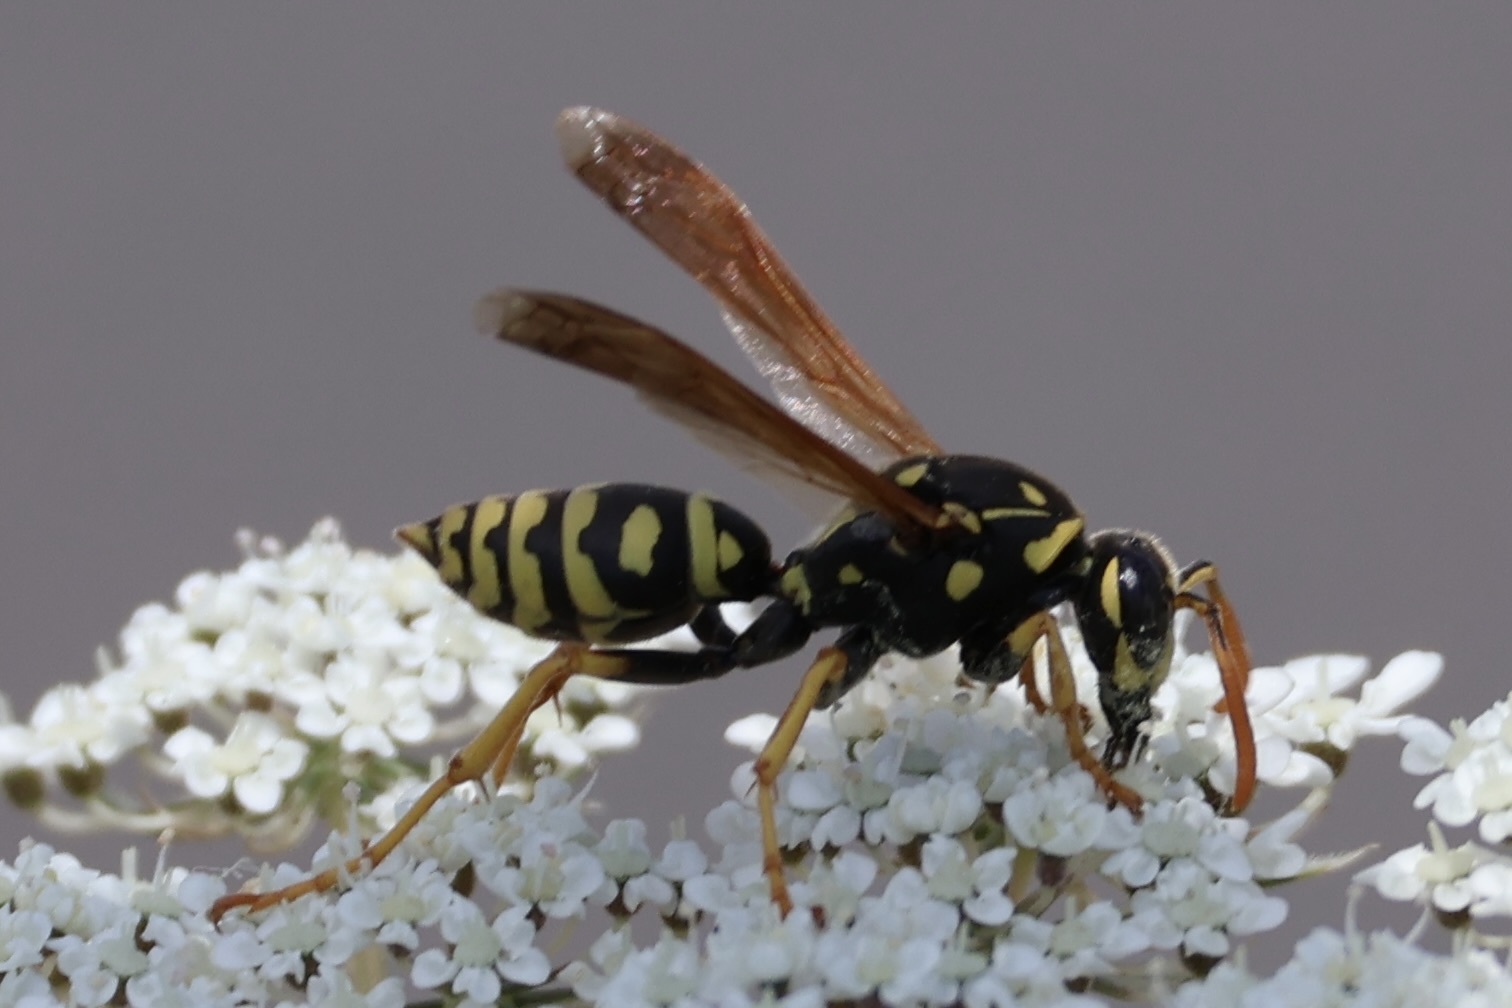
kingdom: Animalia
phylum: Arthropoda
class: Insecta
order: Hymenoptera
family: Eumenidae
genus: Polistes
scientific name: Polistes dominula
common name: Paper wasp
